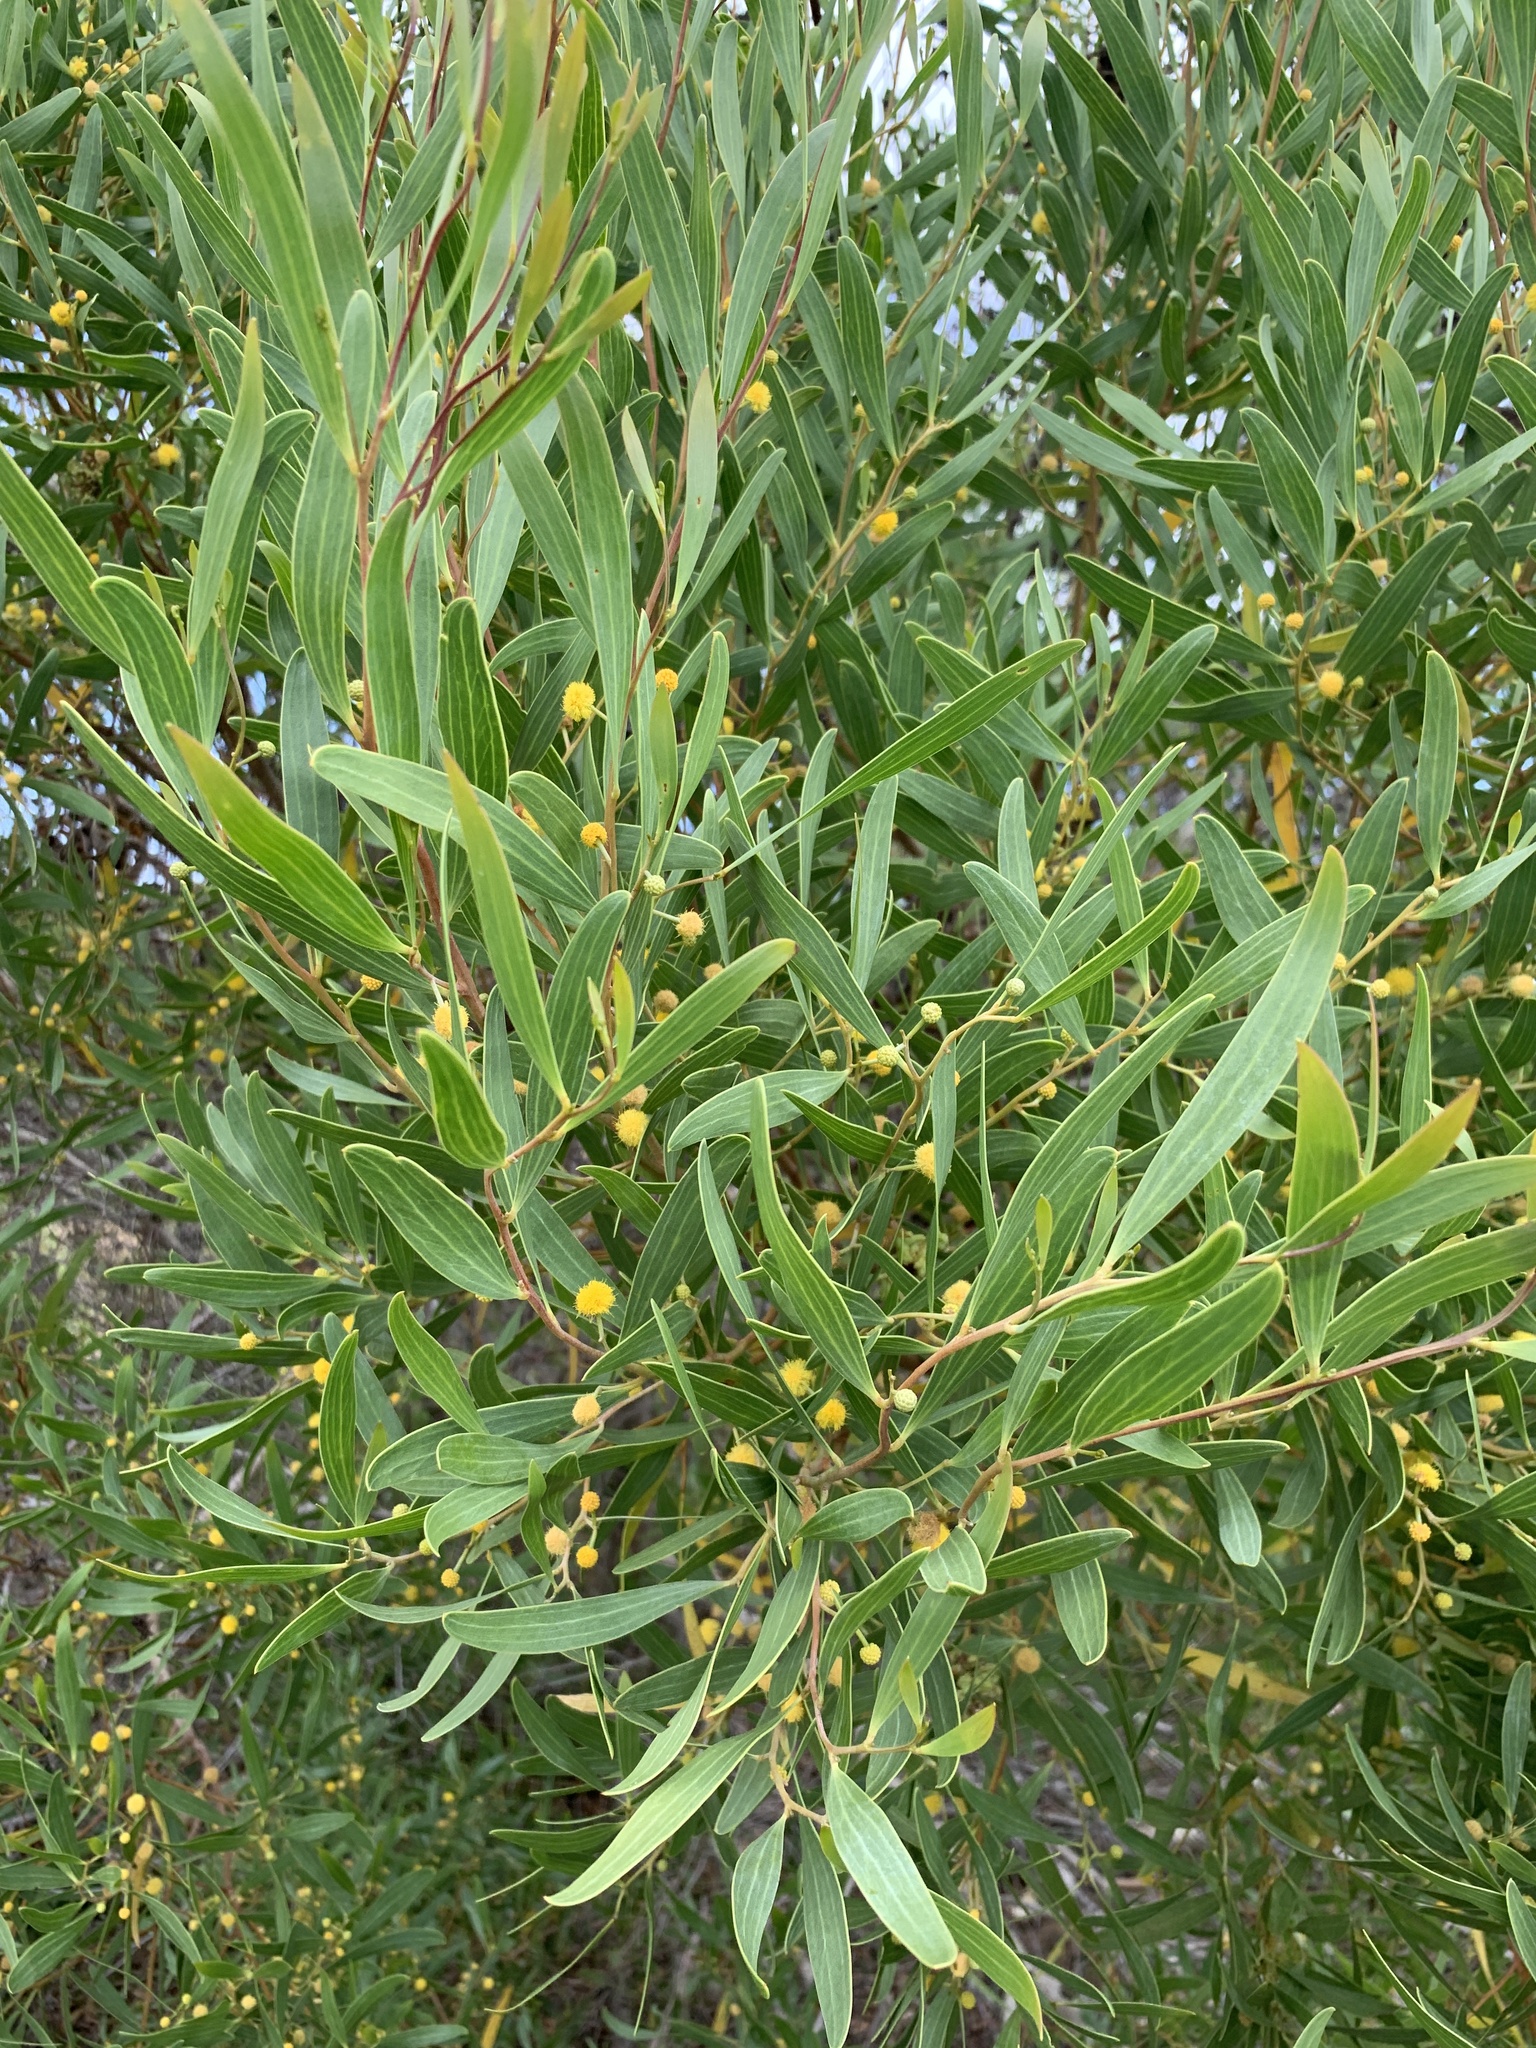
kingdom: Plantae
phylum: Tracheophyta
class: Magnoliopsida
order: Fabales
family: Fabaceae
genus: Acacia
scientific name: Acacia cyclops
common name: Coastal wattle
